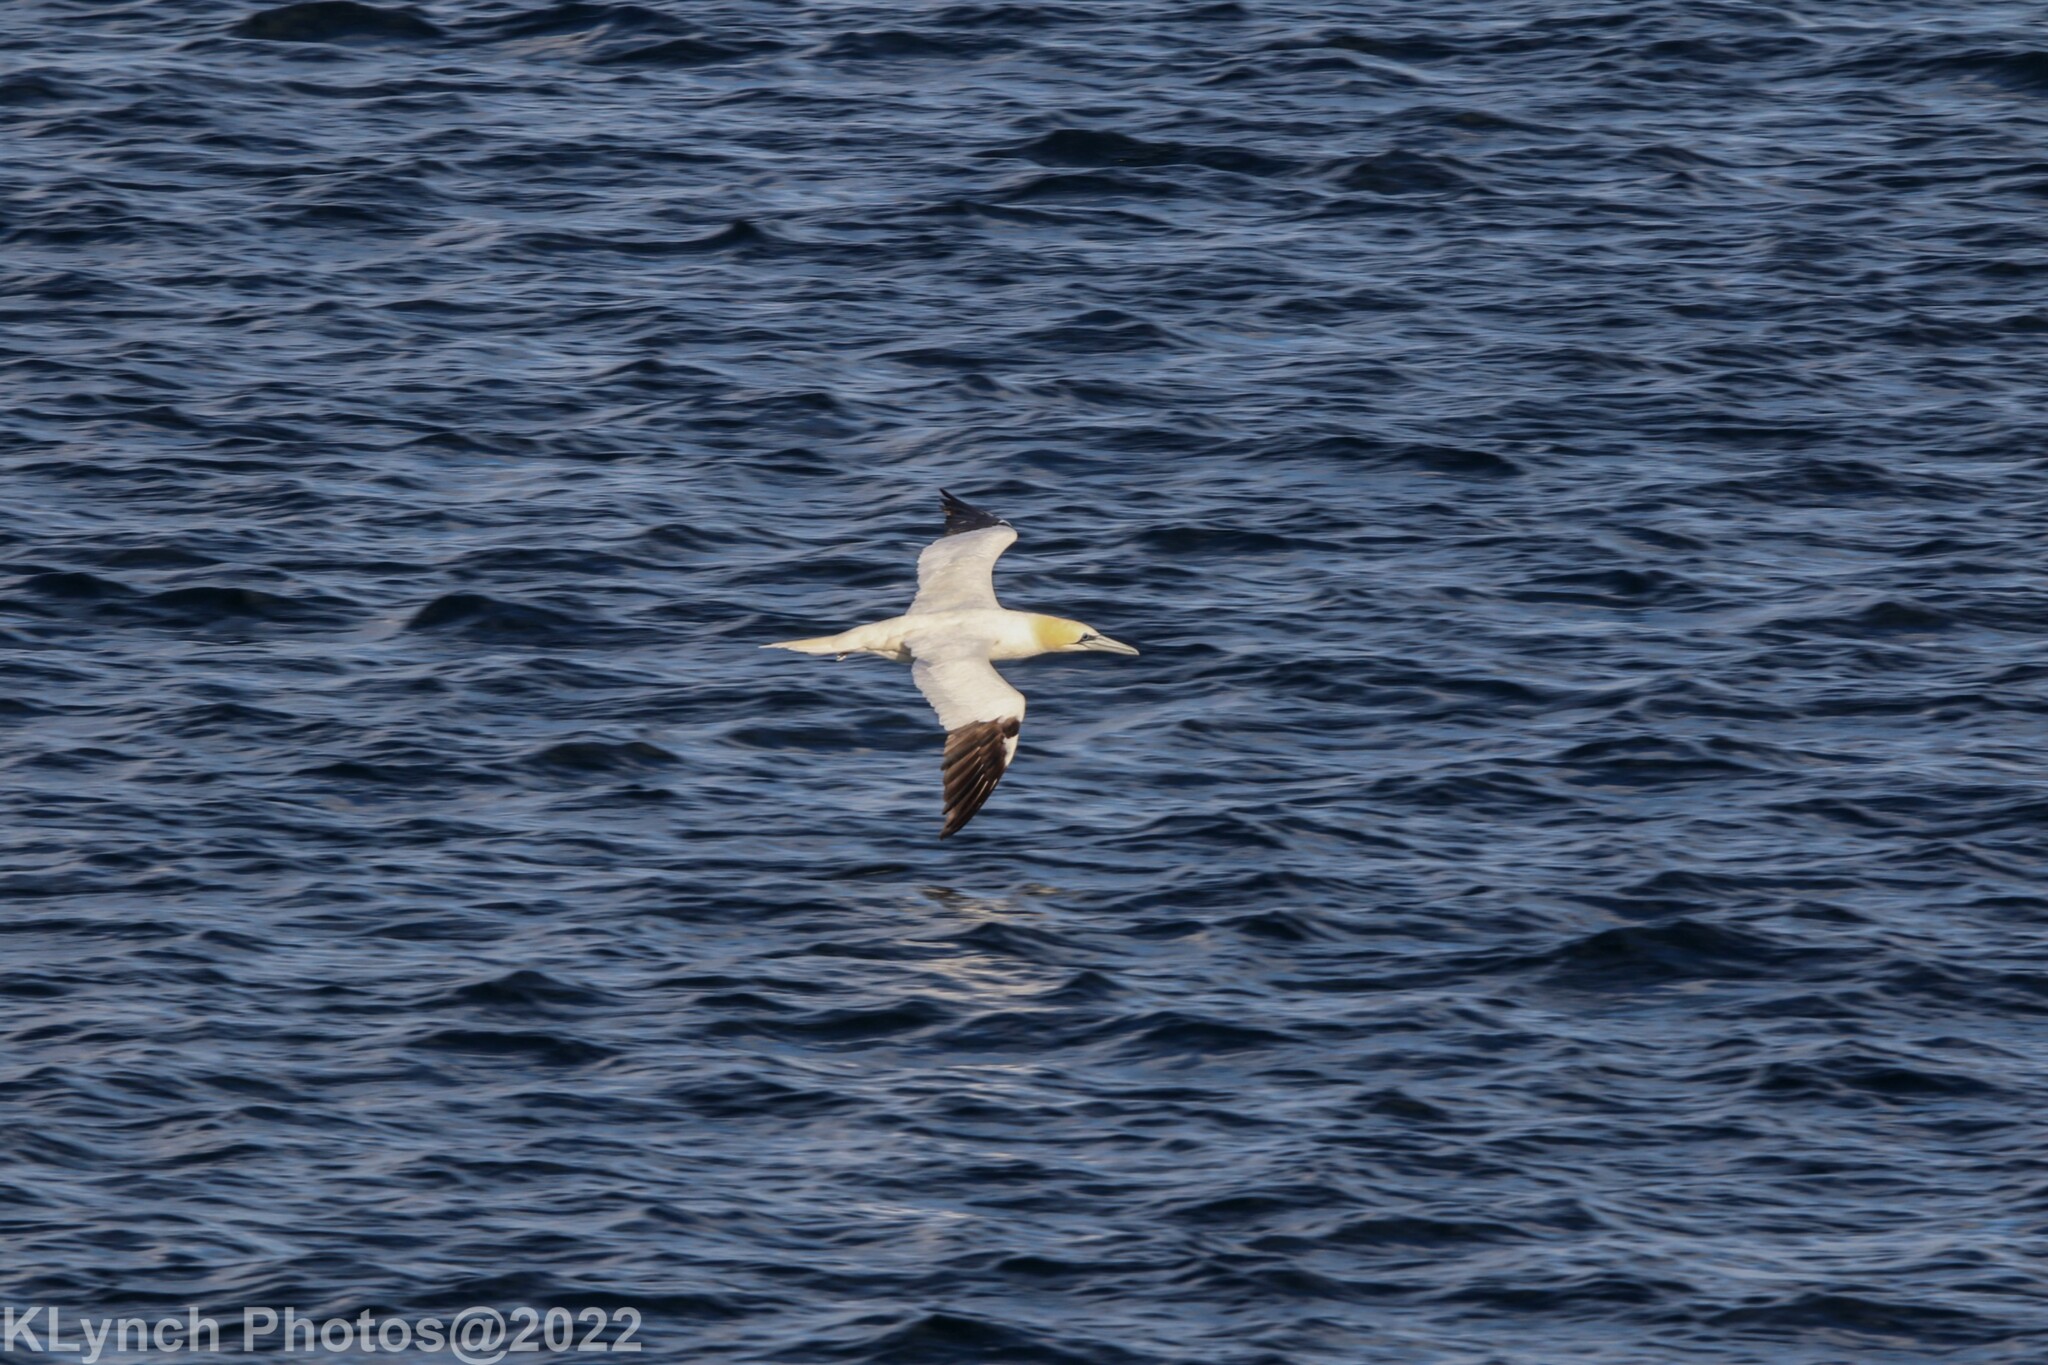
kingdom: Animalia
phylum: Chordata
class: Aves
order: Suliformes
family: Sulidae
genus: Morus
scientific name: Morus bassanus
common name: Northern gannet
